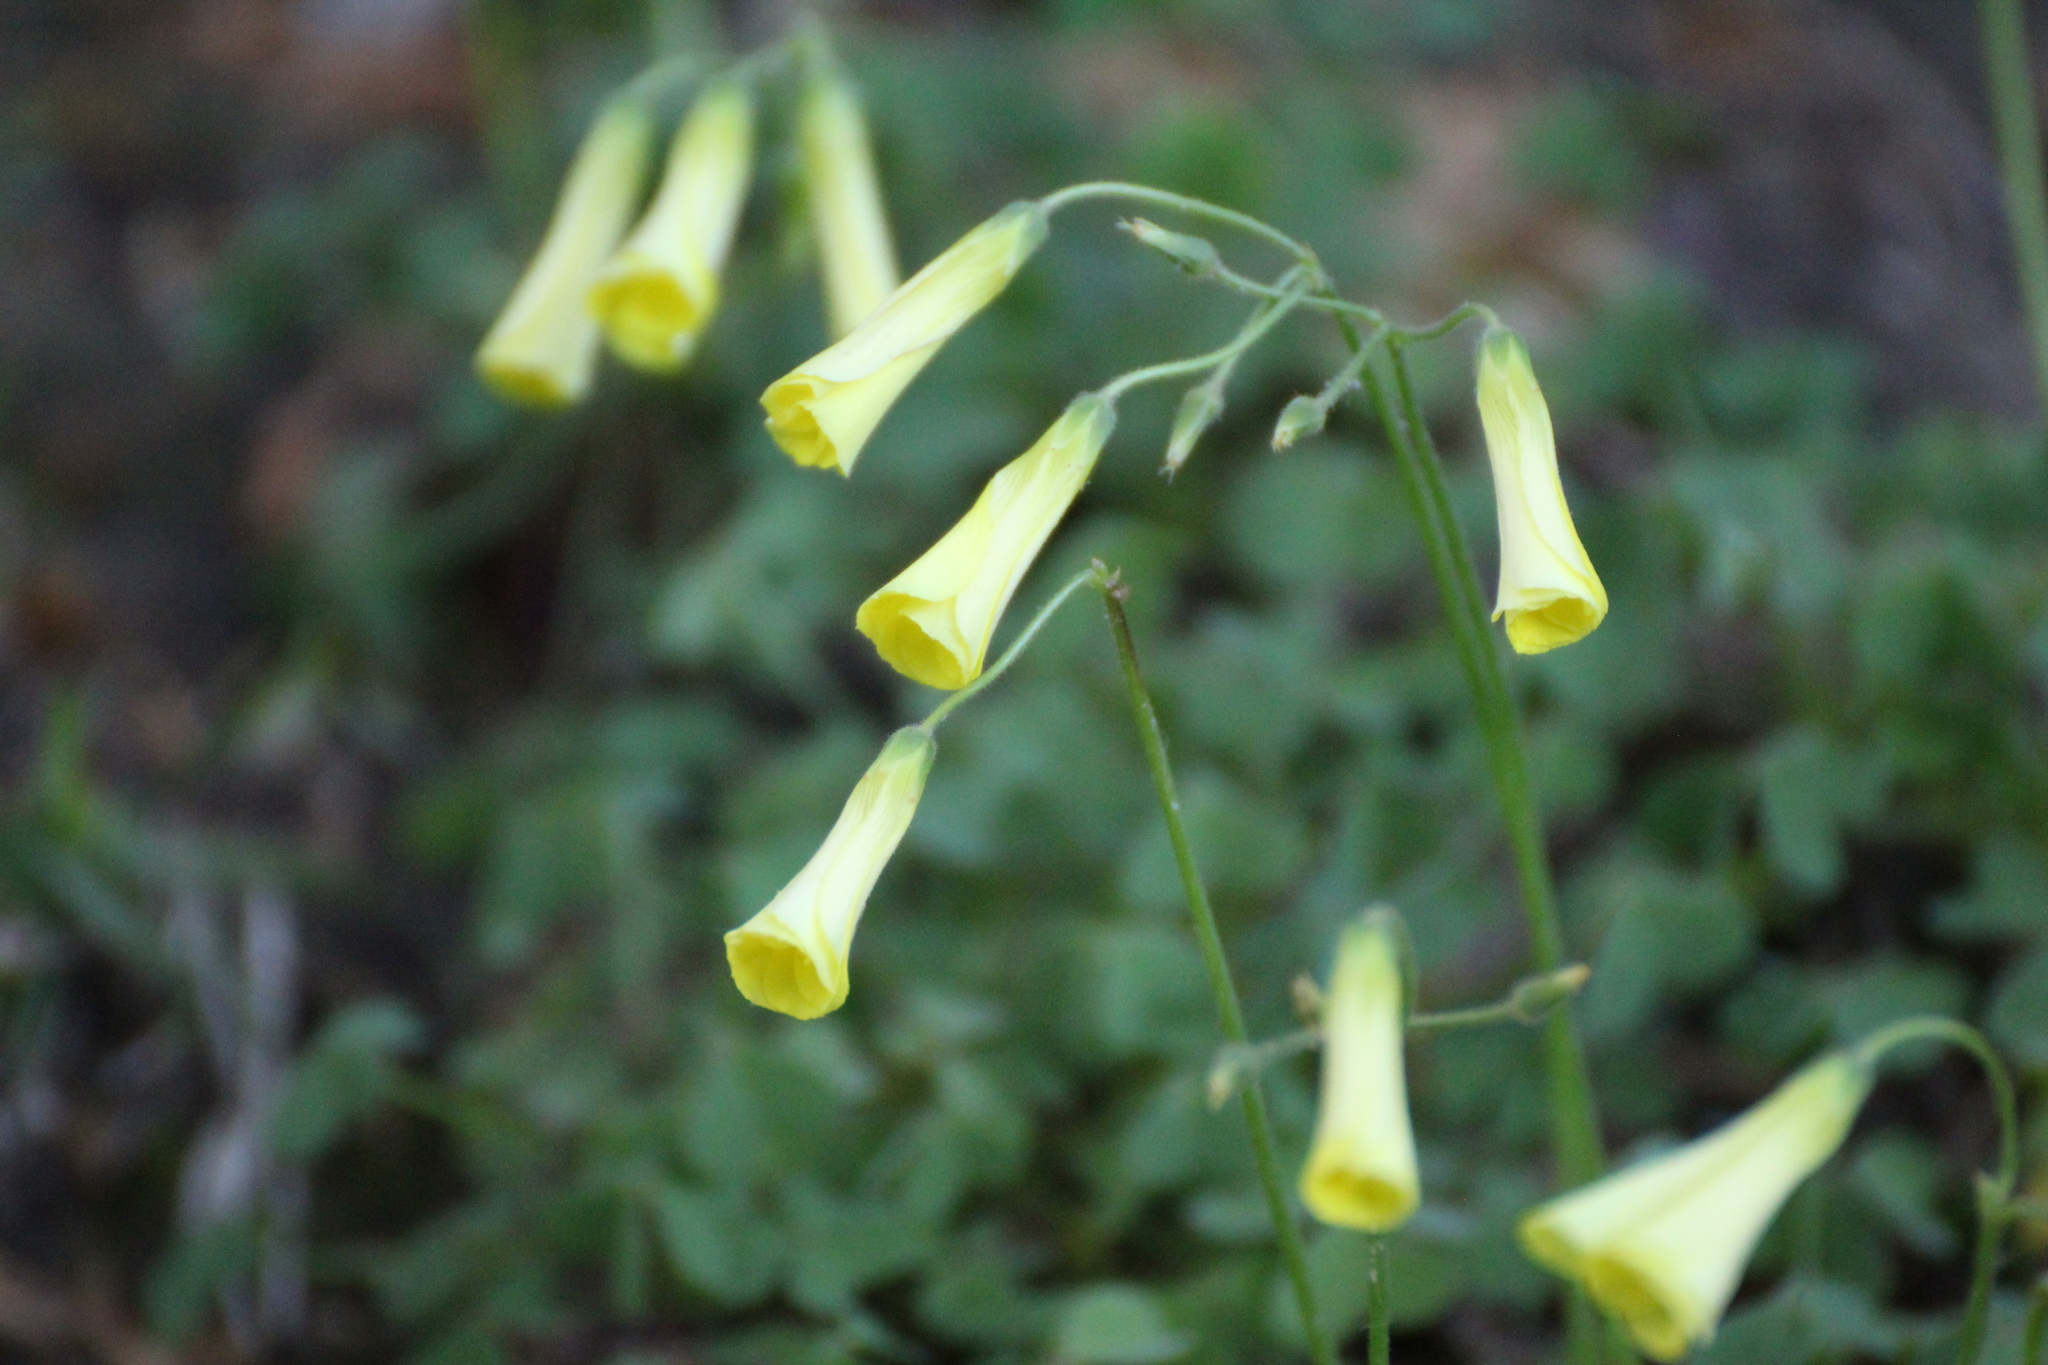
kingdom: Plantae
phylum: Tracheophyta
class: Magnoliopsida
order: Oxalidales
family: Oxalidaceae
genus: Oxalis
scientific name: Oxalis pes-caprae
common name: Bermuda-buttercup
